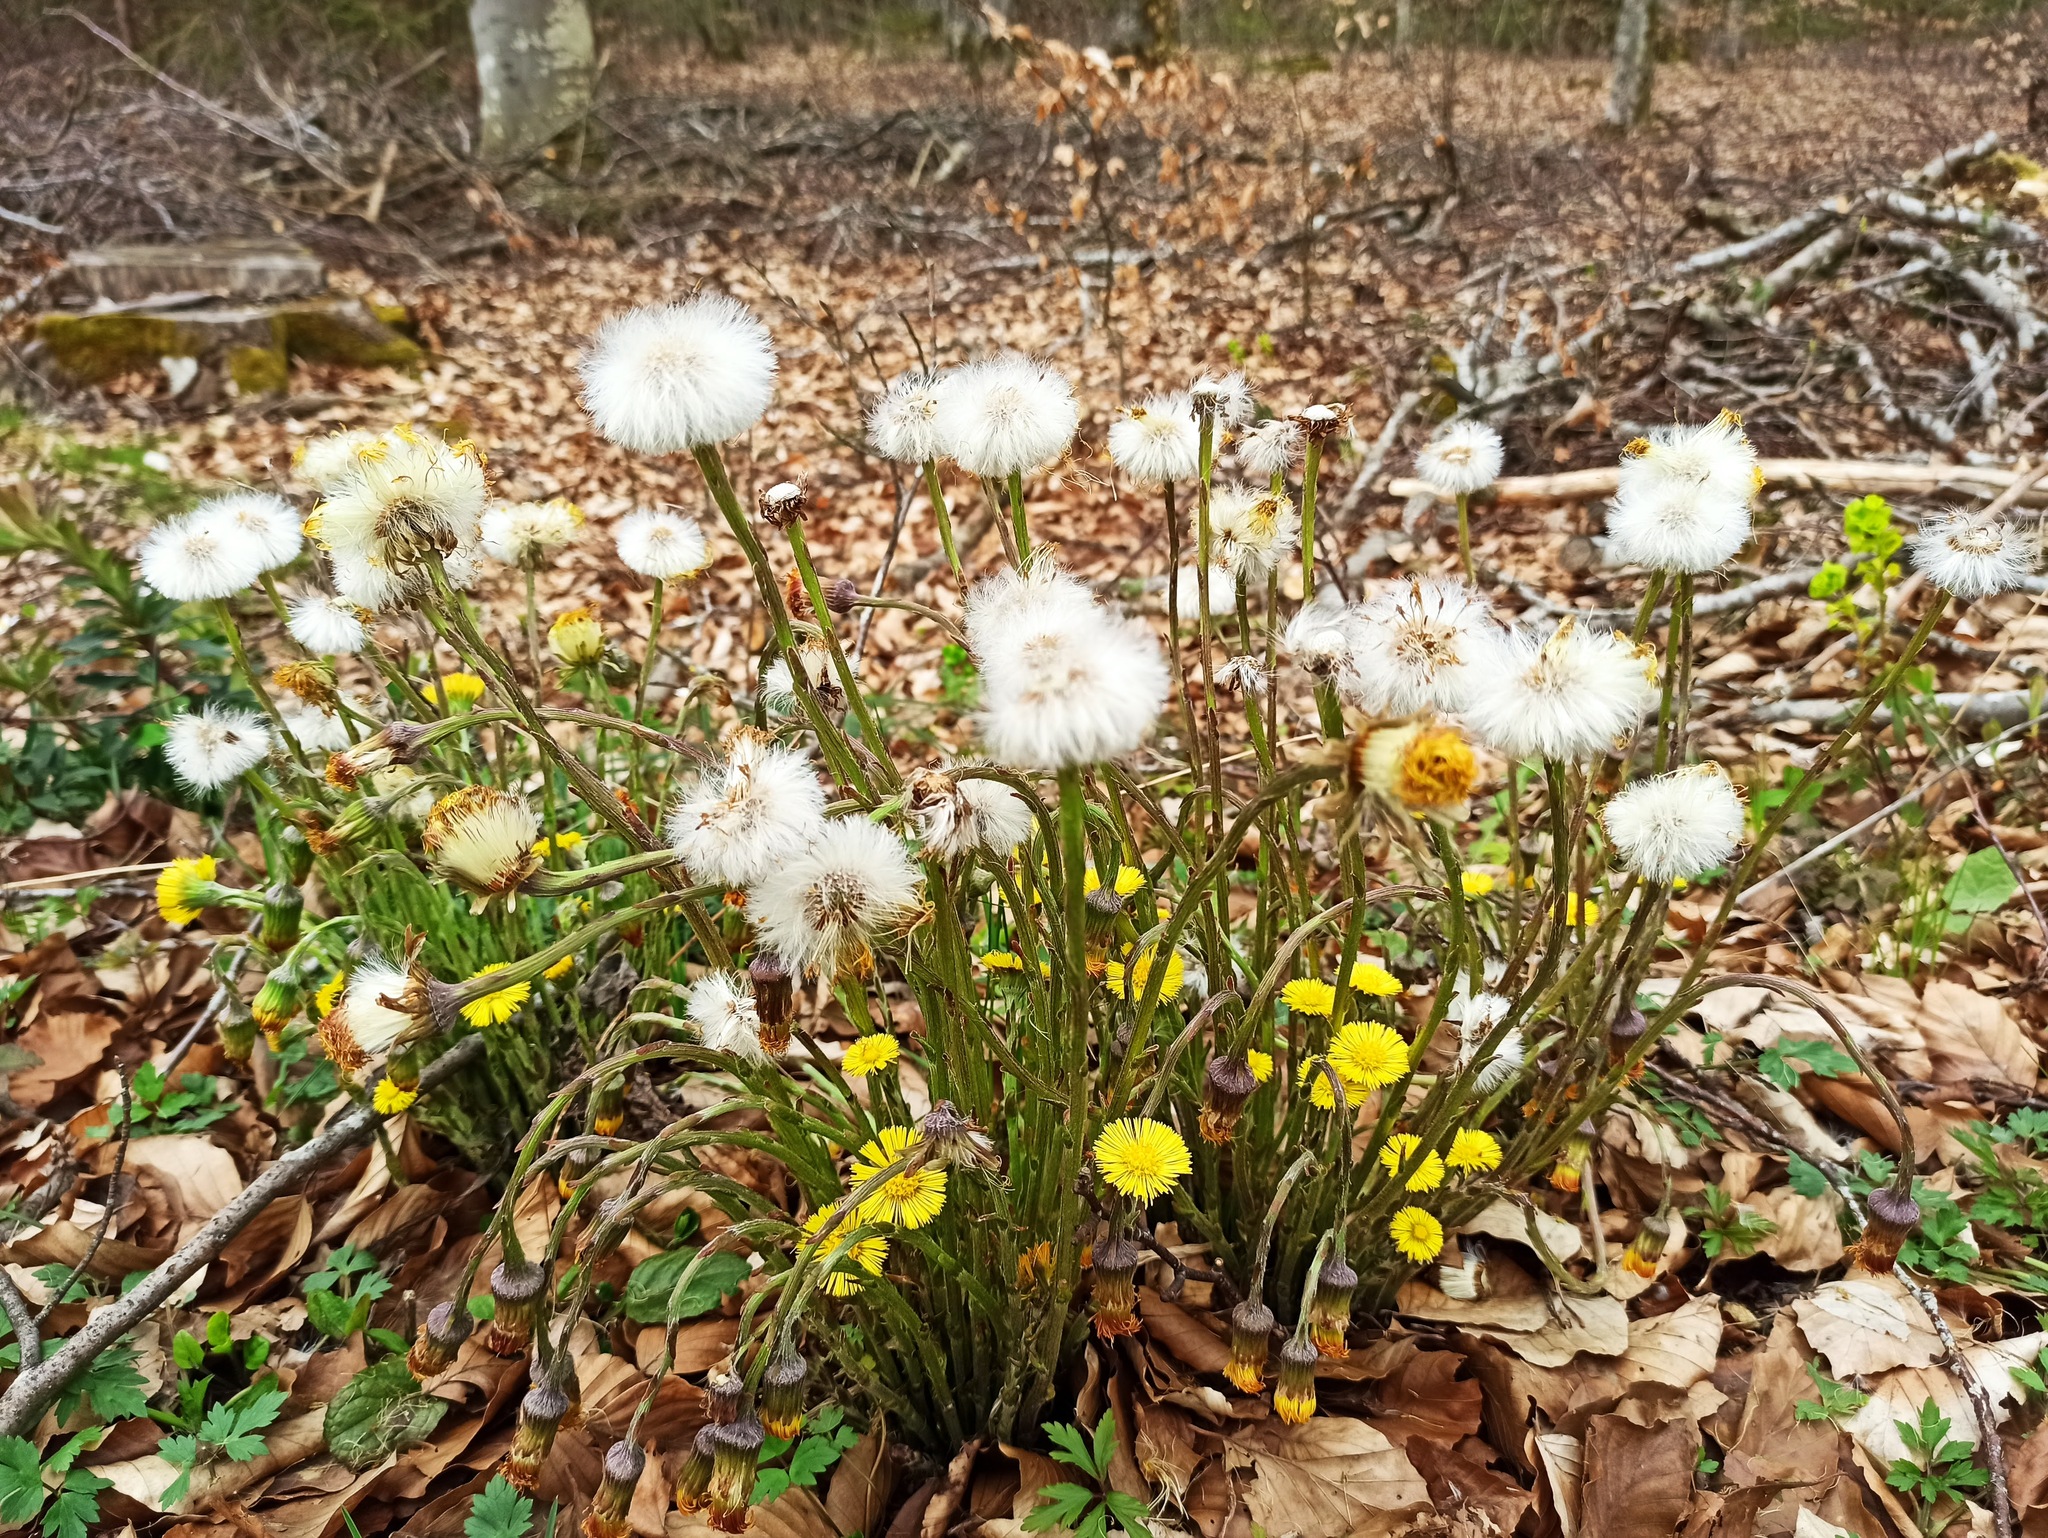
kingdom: Plantae
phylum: Tracheophyta
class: Magnoliopsida
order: Asterales
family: Asteraceae
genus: Tussilago
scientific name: Tussilago farfara
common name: Coltsfoot
